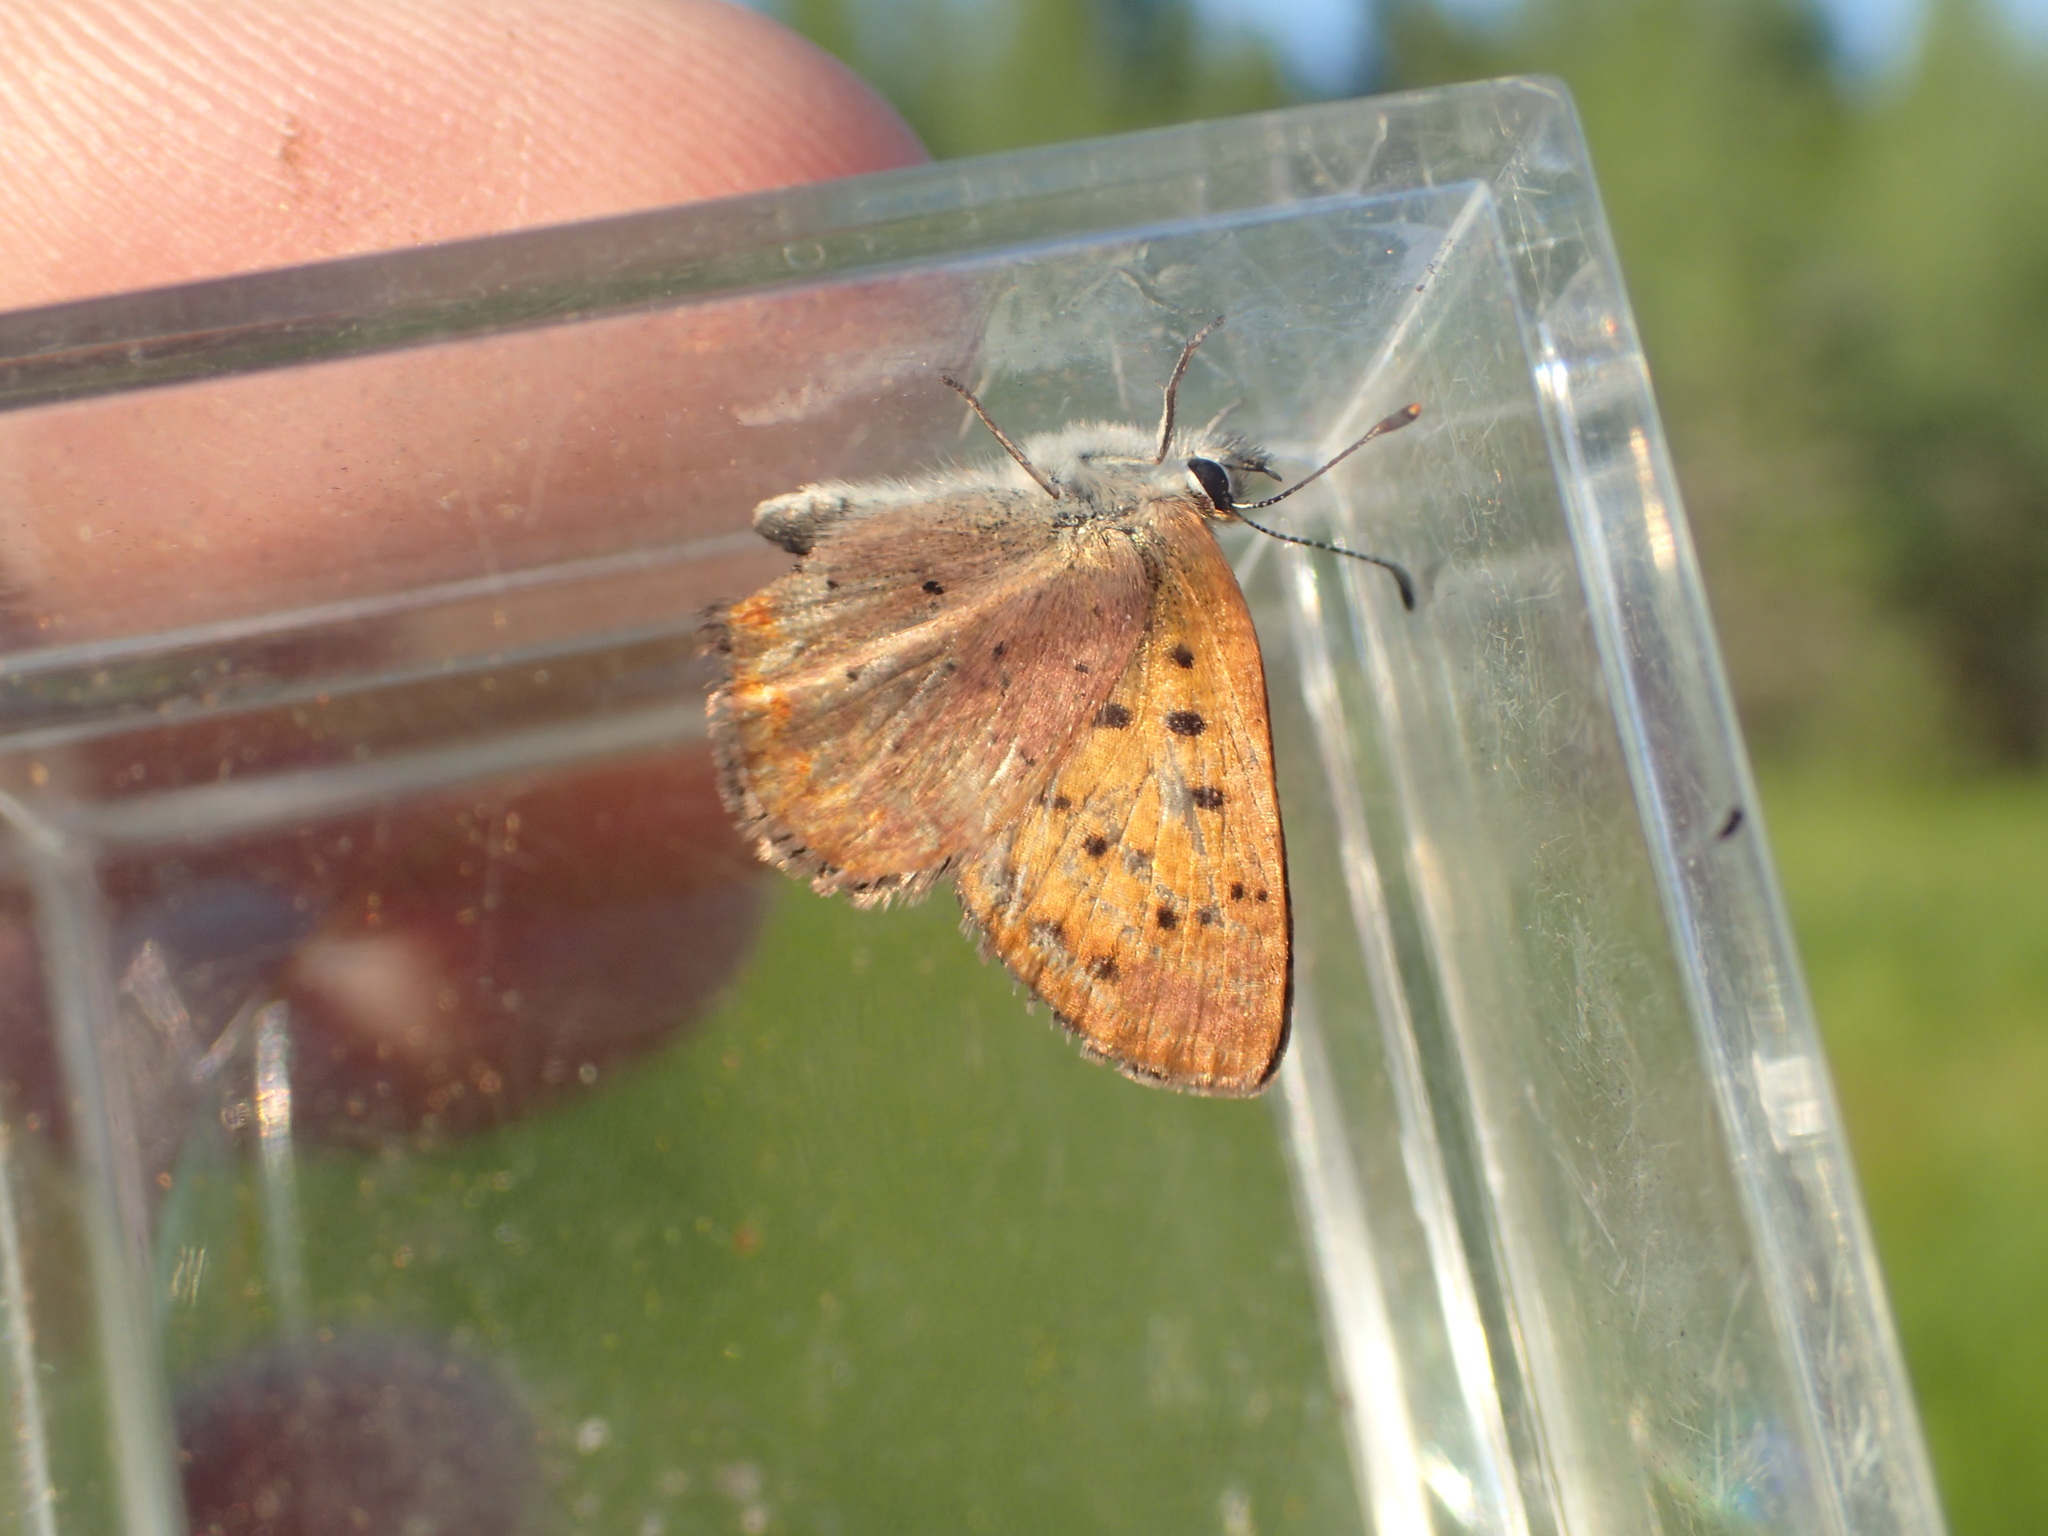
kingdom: Animalia
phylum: Arthropoda
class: Insecta
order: Lepidoptera
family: Lycaenidae
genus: Tharsalea
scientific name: Tharsalea dorcas
